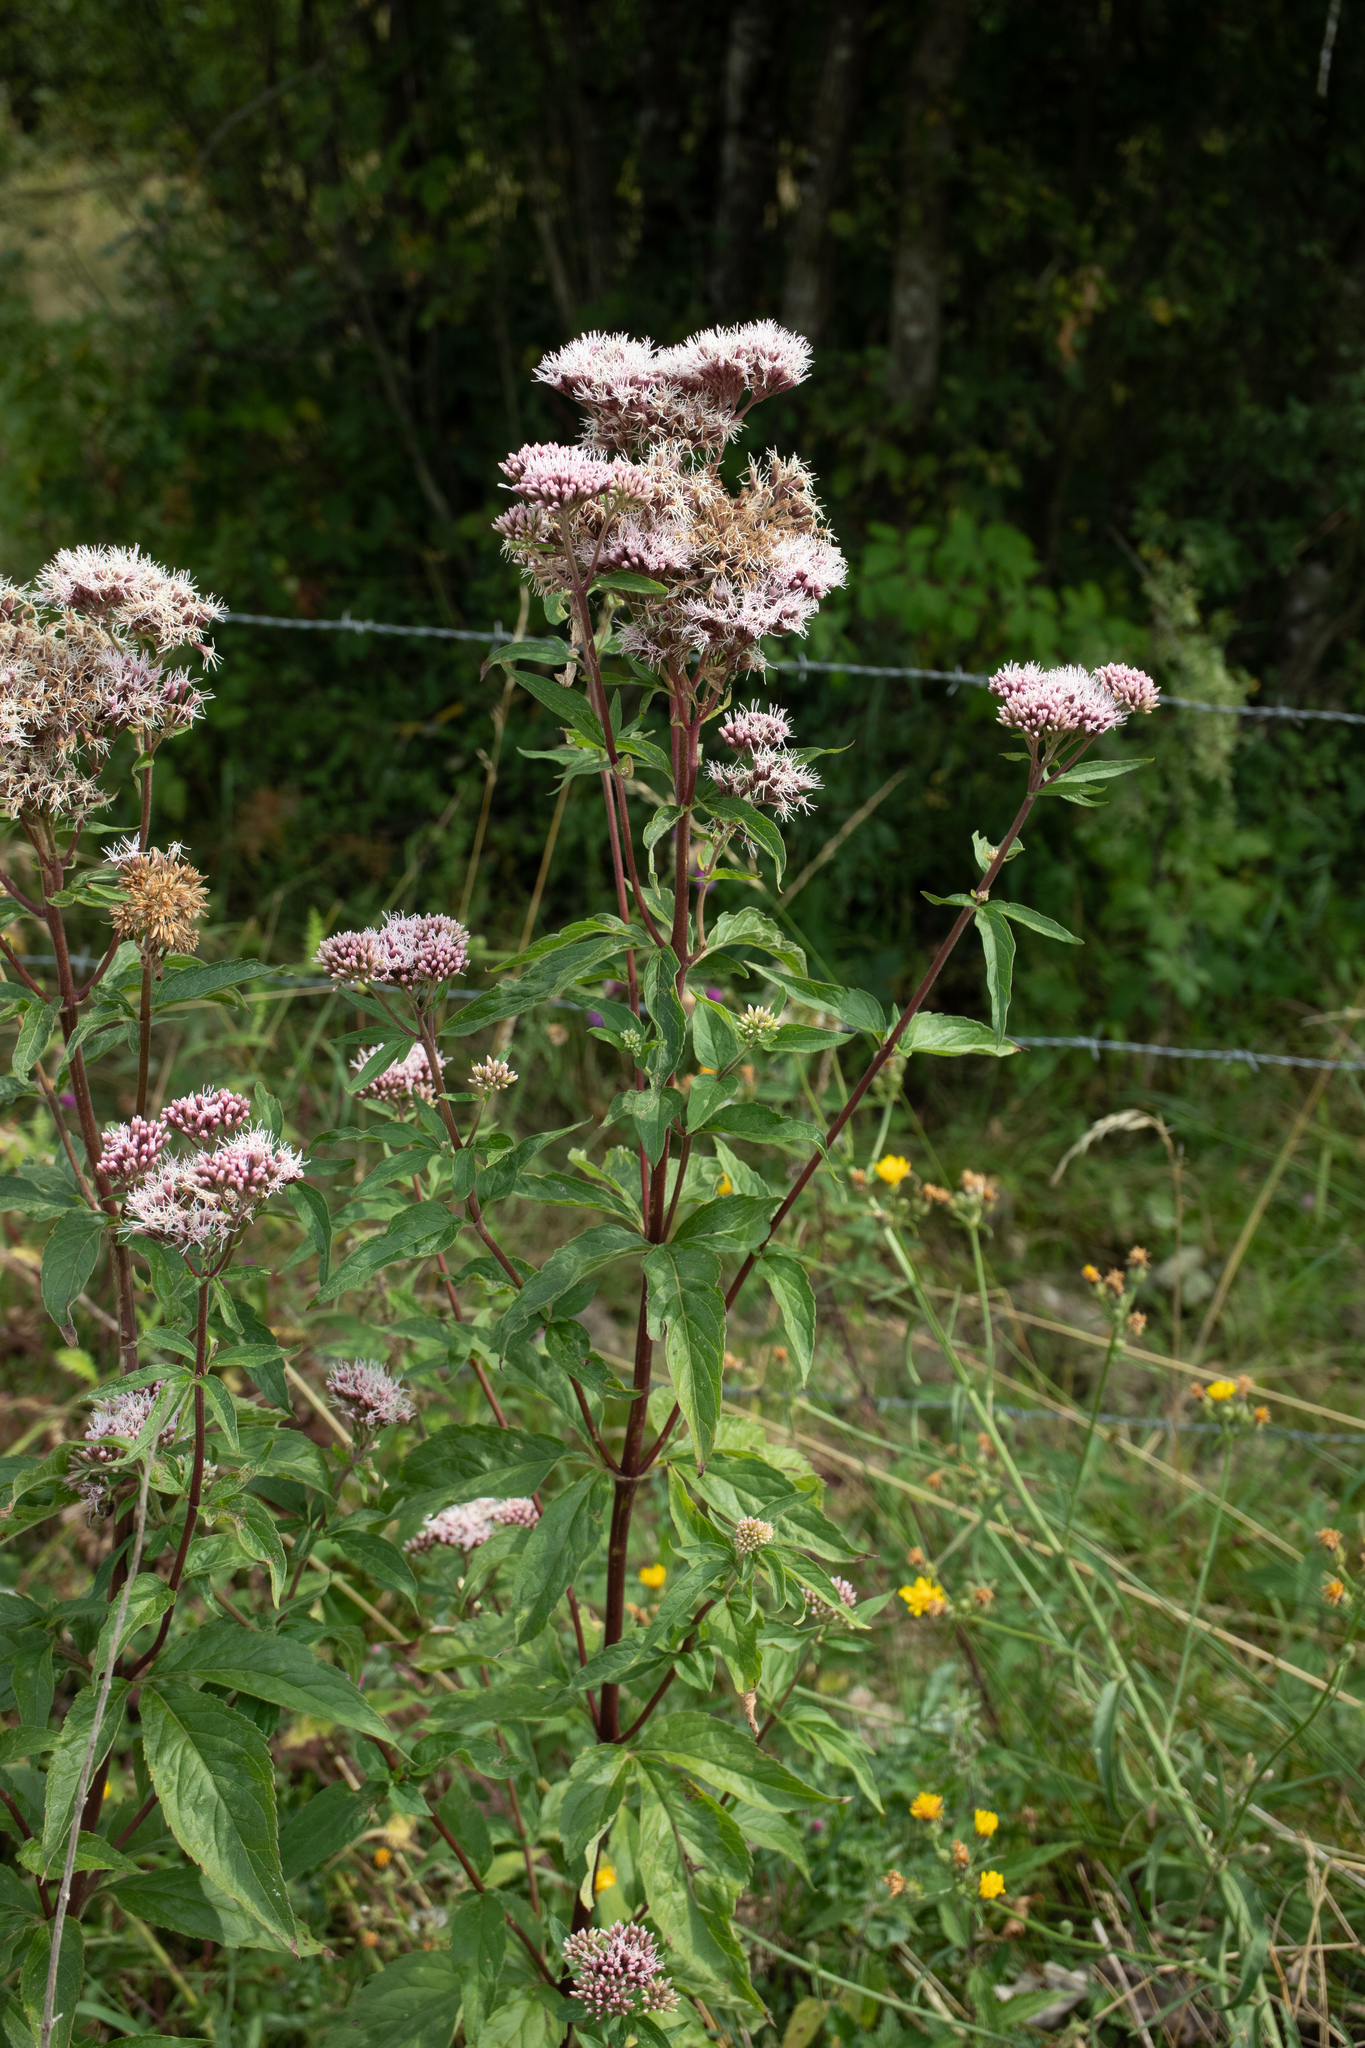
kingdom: Plantae
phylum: Tracheophyta
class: Magnoliopsida
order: Asterales
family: Asteraceae
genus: Eupatorium
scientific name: Eupatorium cannabinum
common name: Hemp-agrimony
